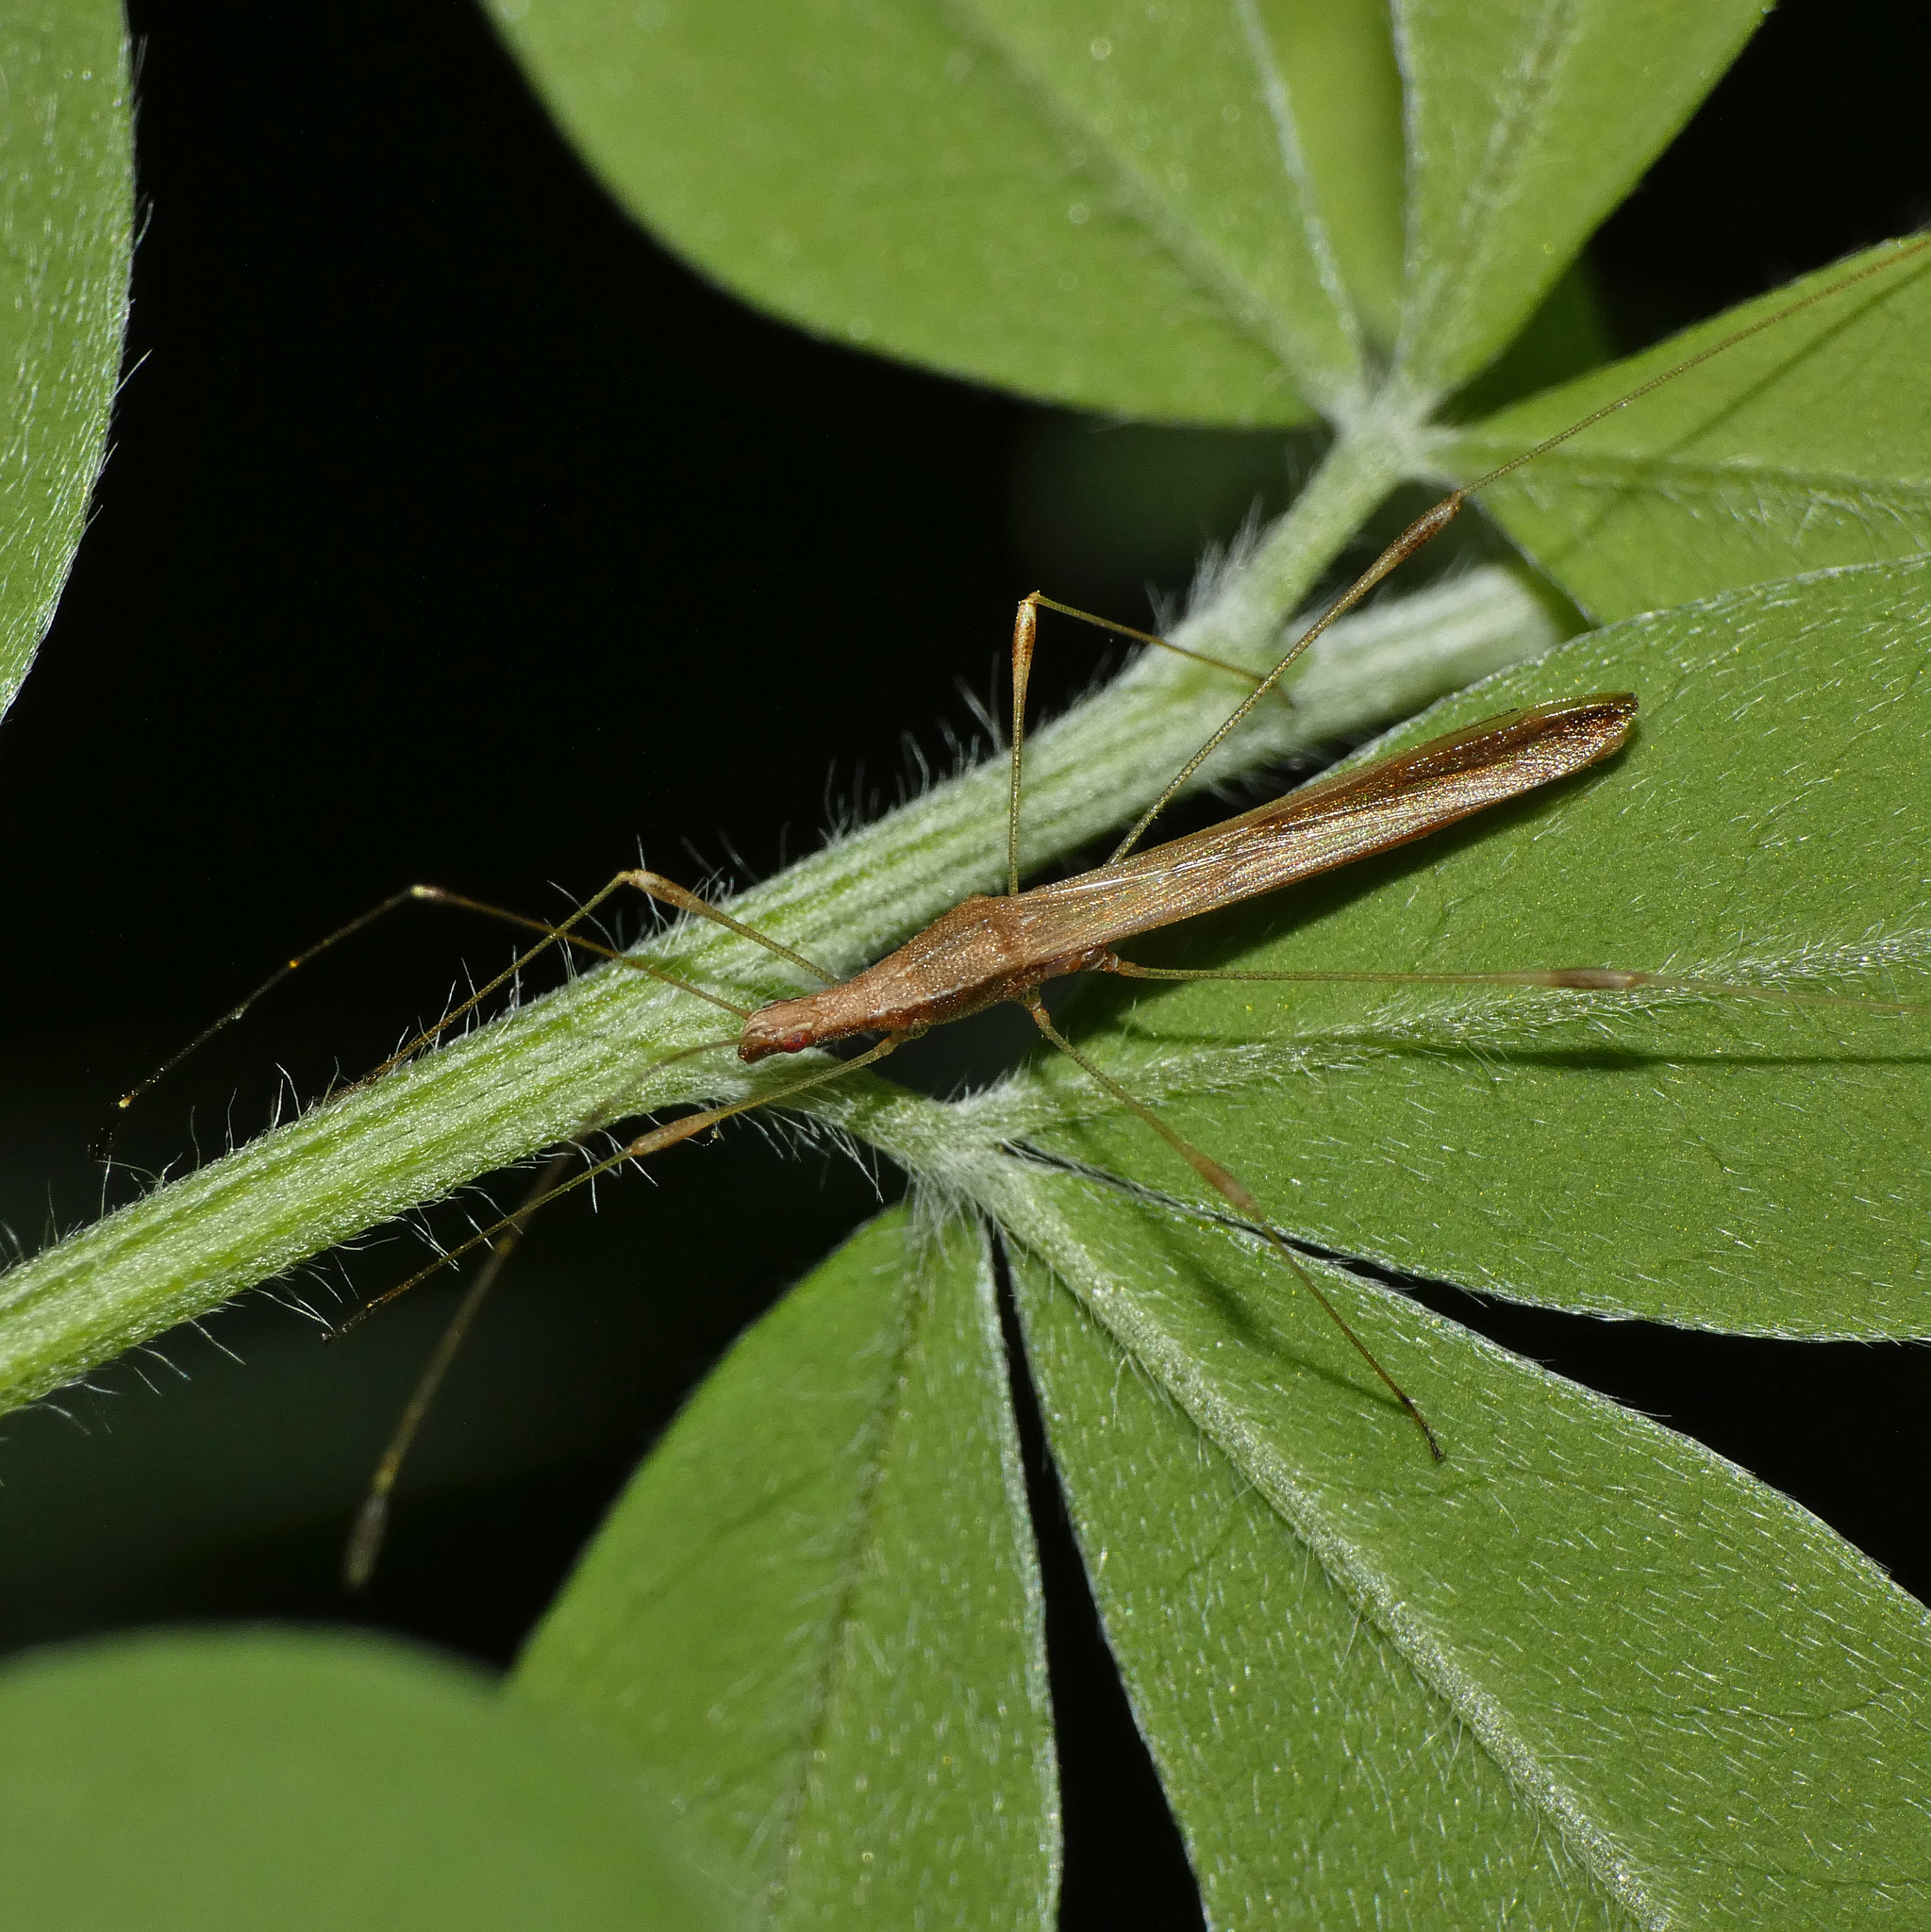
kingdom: Animalia
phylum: Arthropoda
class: Insecta
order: Hemiptera
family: Berytidae
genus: Neoneides
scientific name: Neoneides muticus
